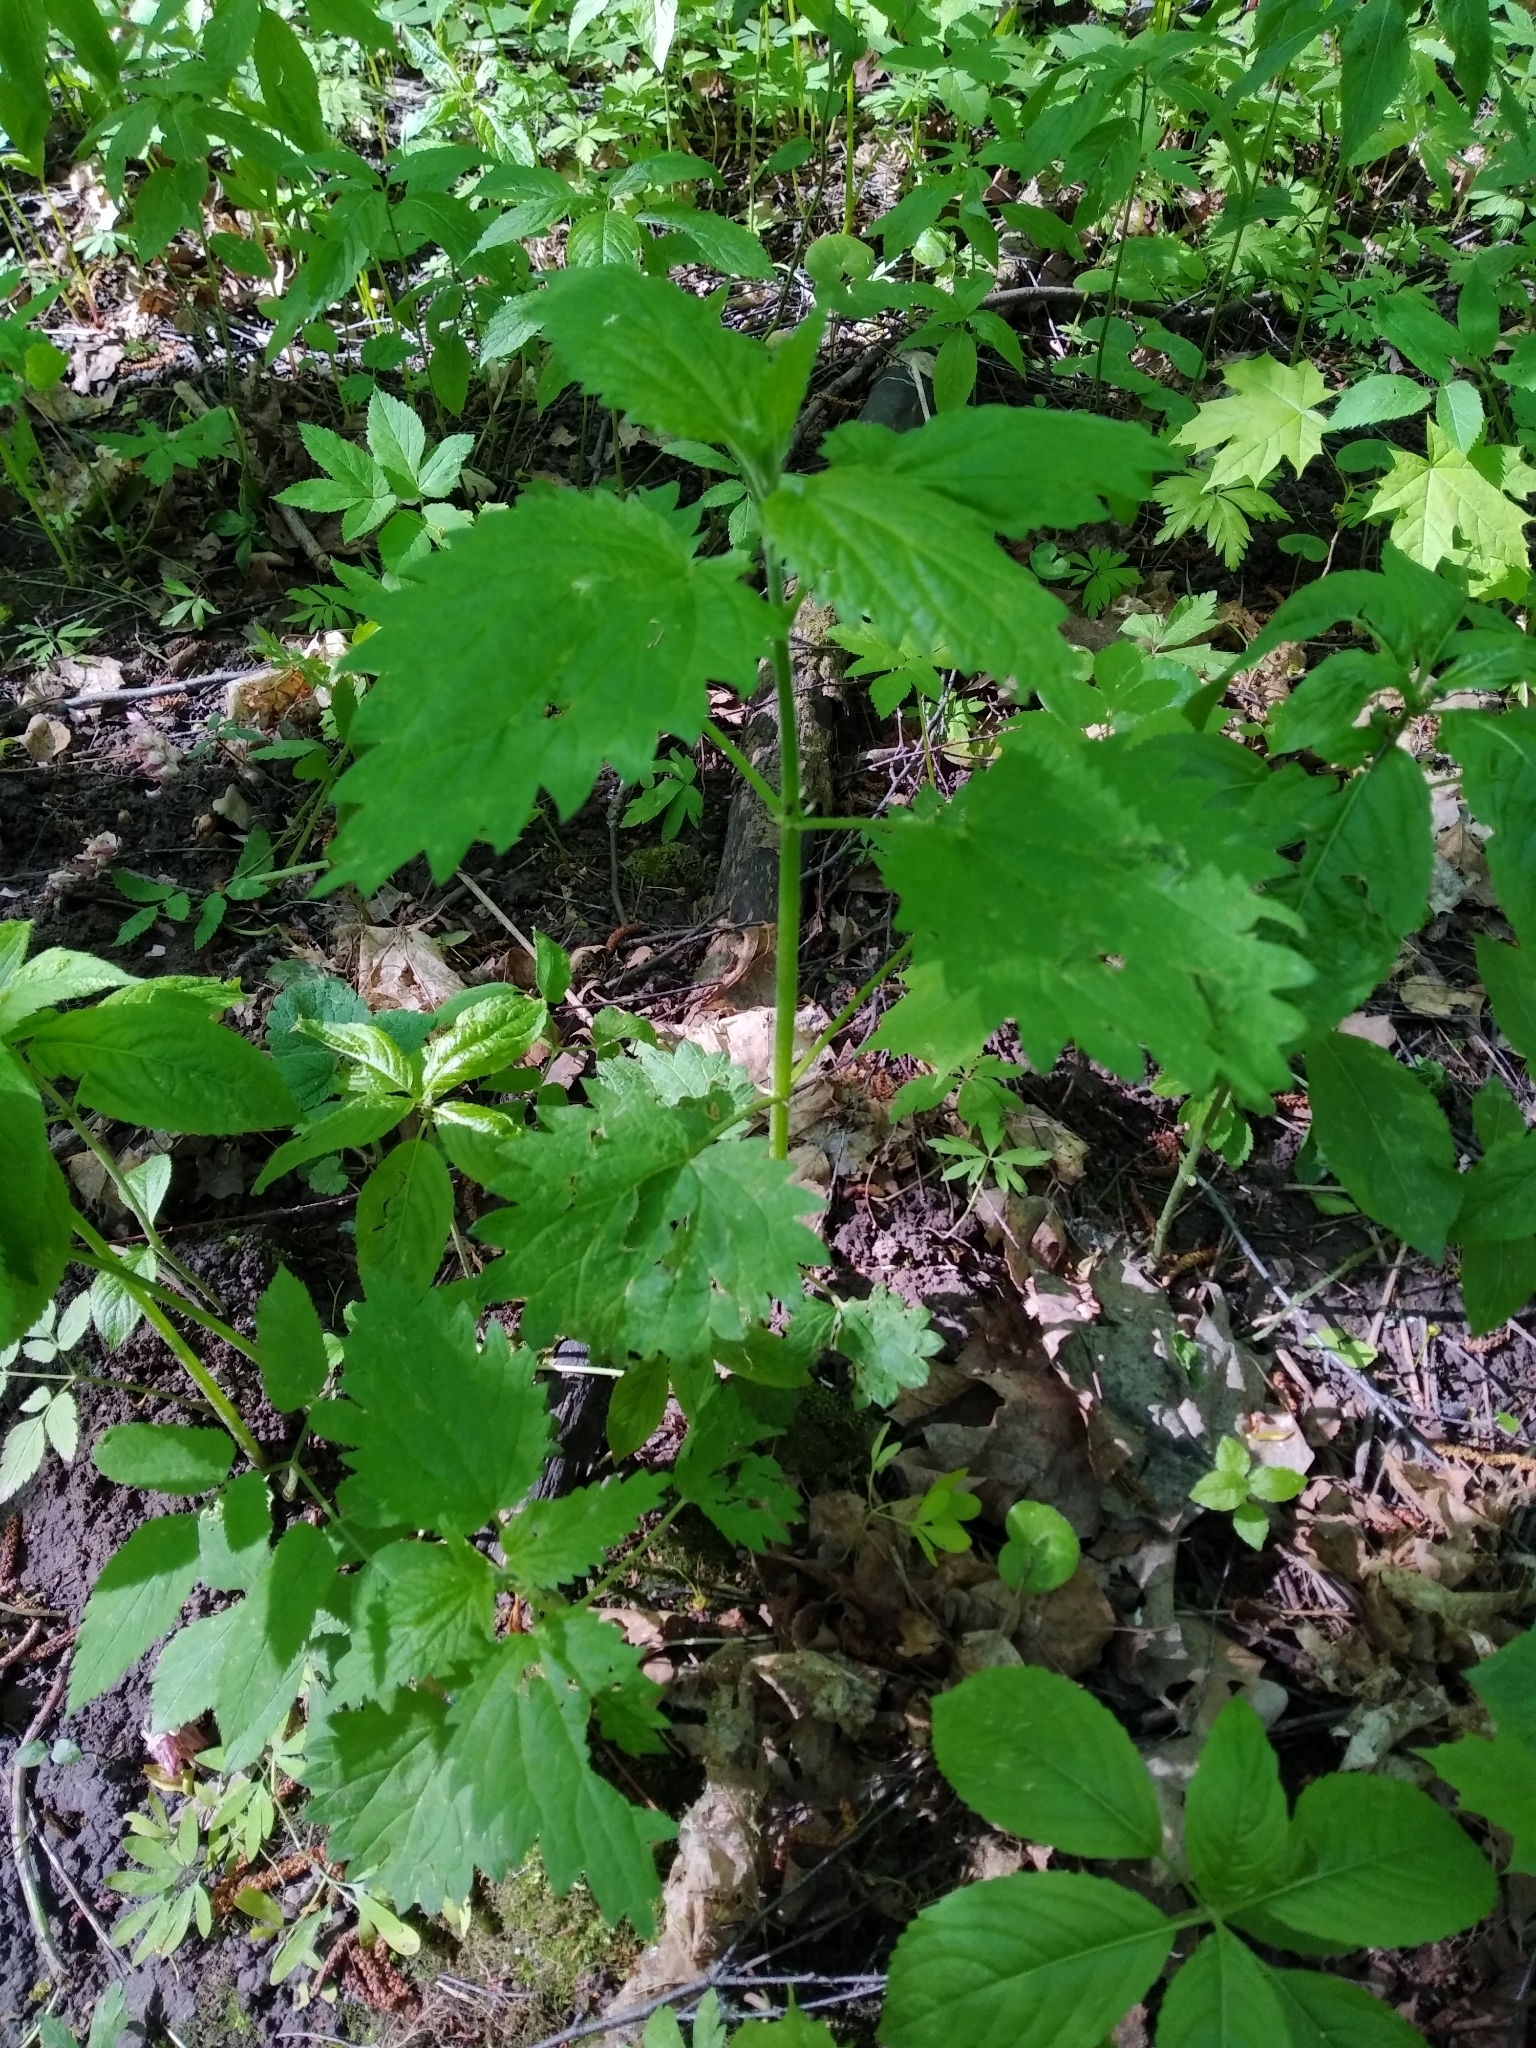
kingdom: Plantae
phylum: Tracheophyta
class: Magnoliopsida
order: Rosales
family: Urticaceae
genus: Urtica
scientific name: Urtica dioica
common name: Common nettle
